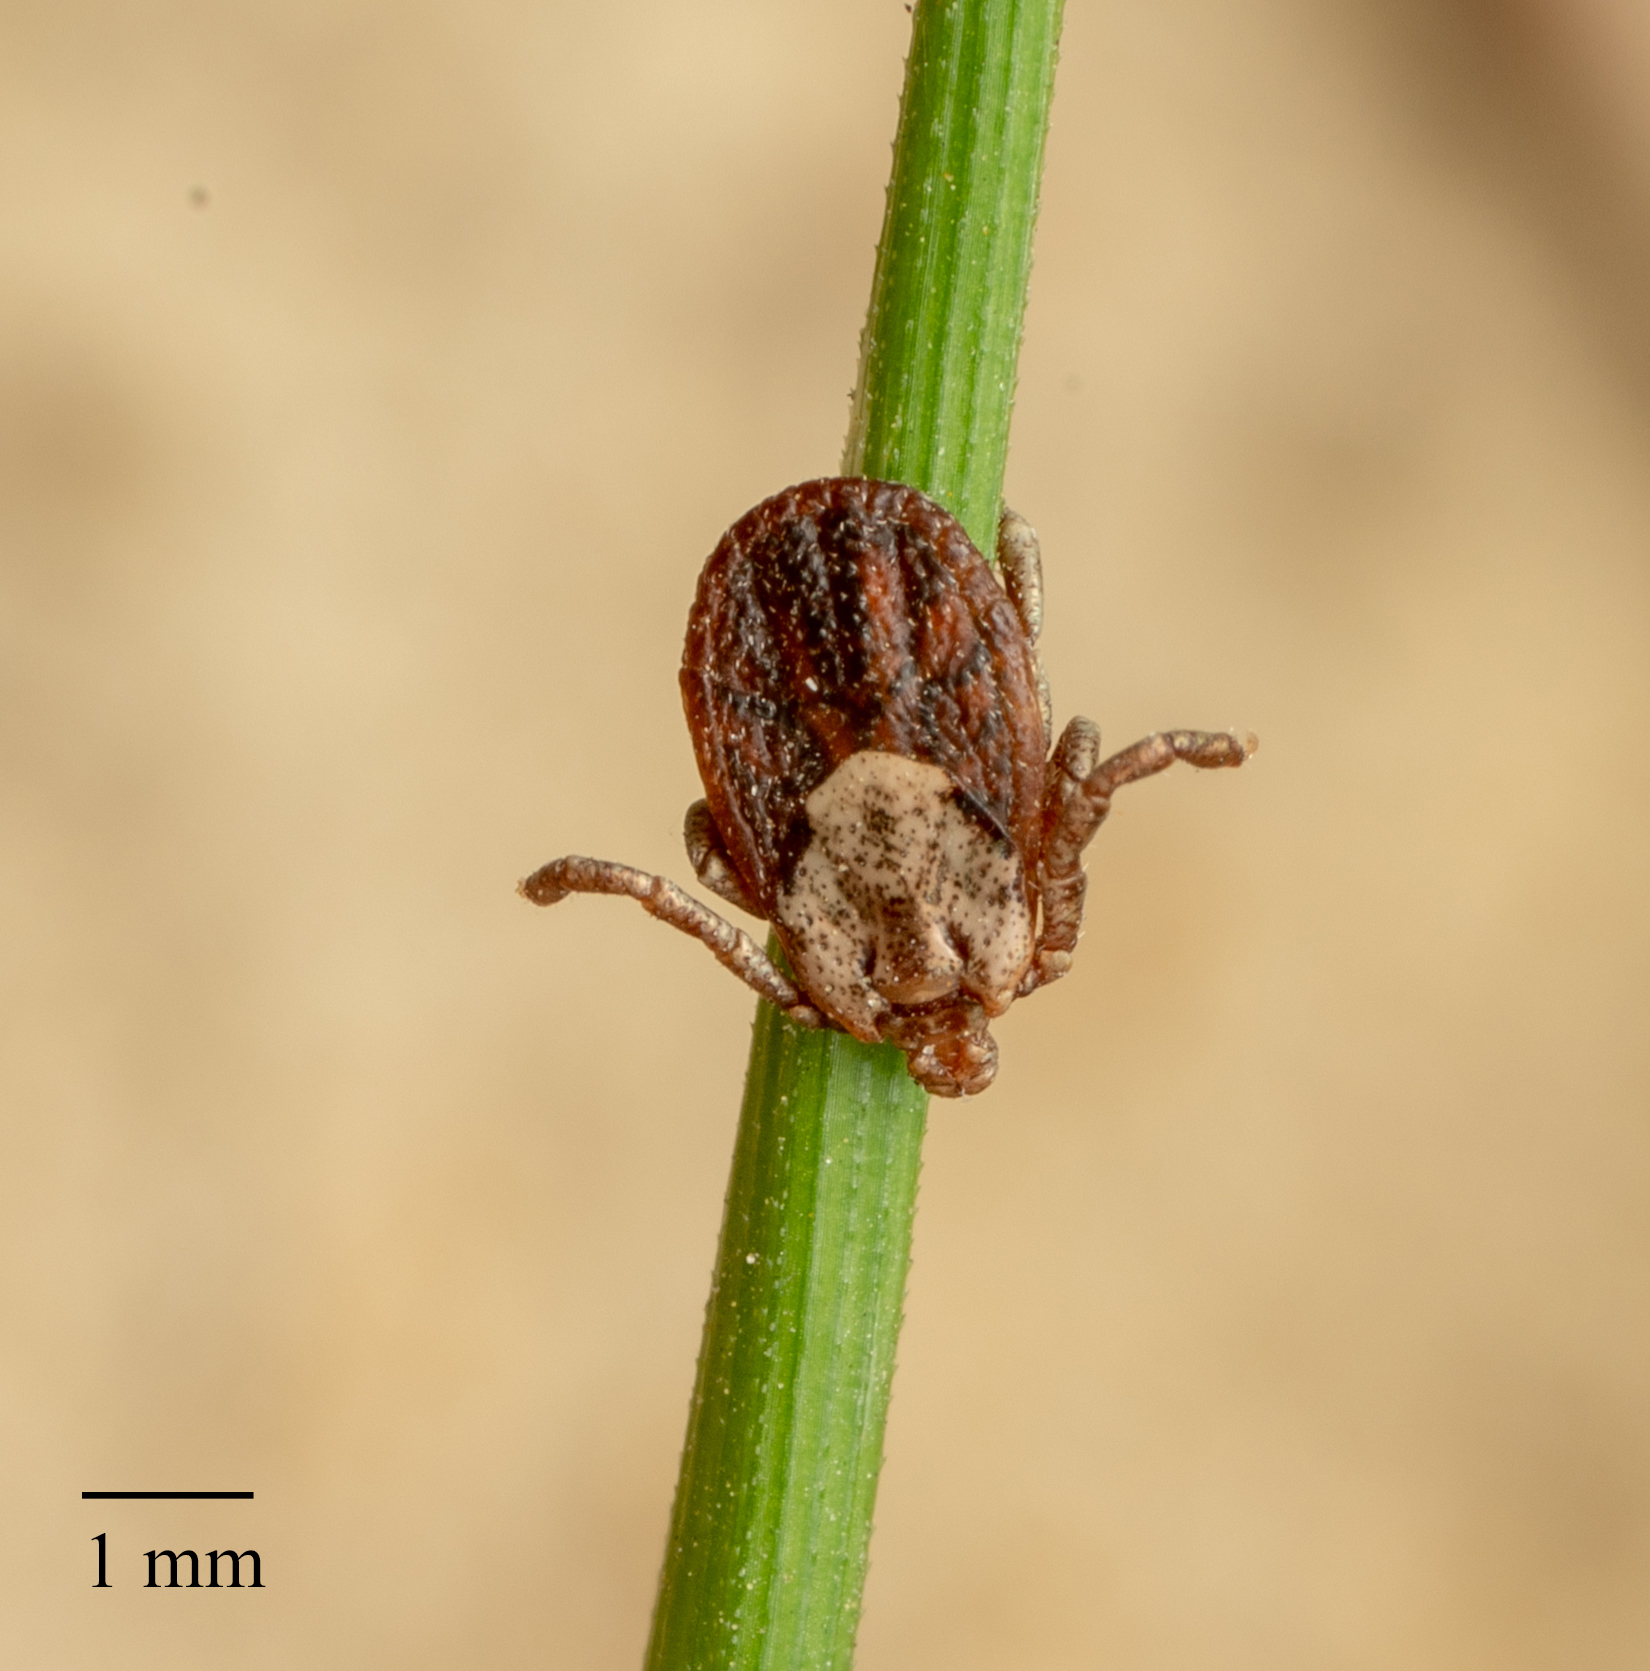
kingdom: Animalia
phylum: Arthropoda
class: Arachnida
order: Ixodida
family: Ixodidae
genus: Dermacentor
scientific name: Dermacentor occidentalis
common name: Net tick
